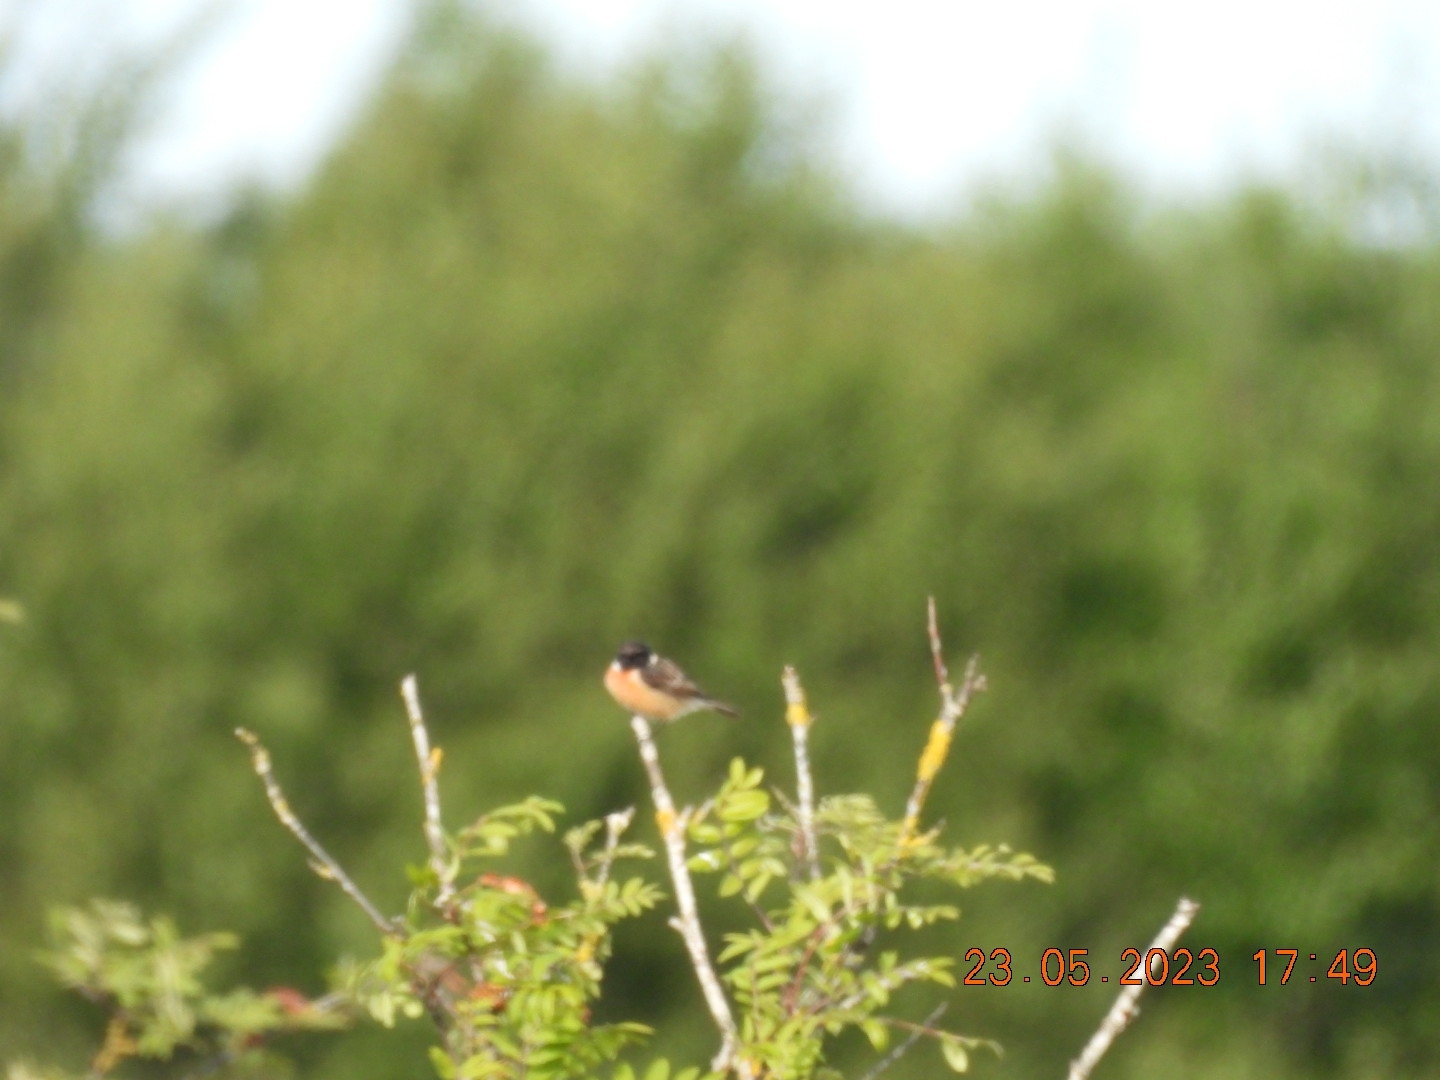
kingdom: Animalia
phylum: Chordata
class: Aves
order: Passeriformes
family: Muscicapidae
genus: Saxicola
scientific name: Saxicola rubicola
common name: European stonechat
